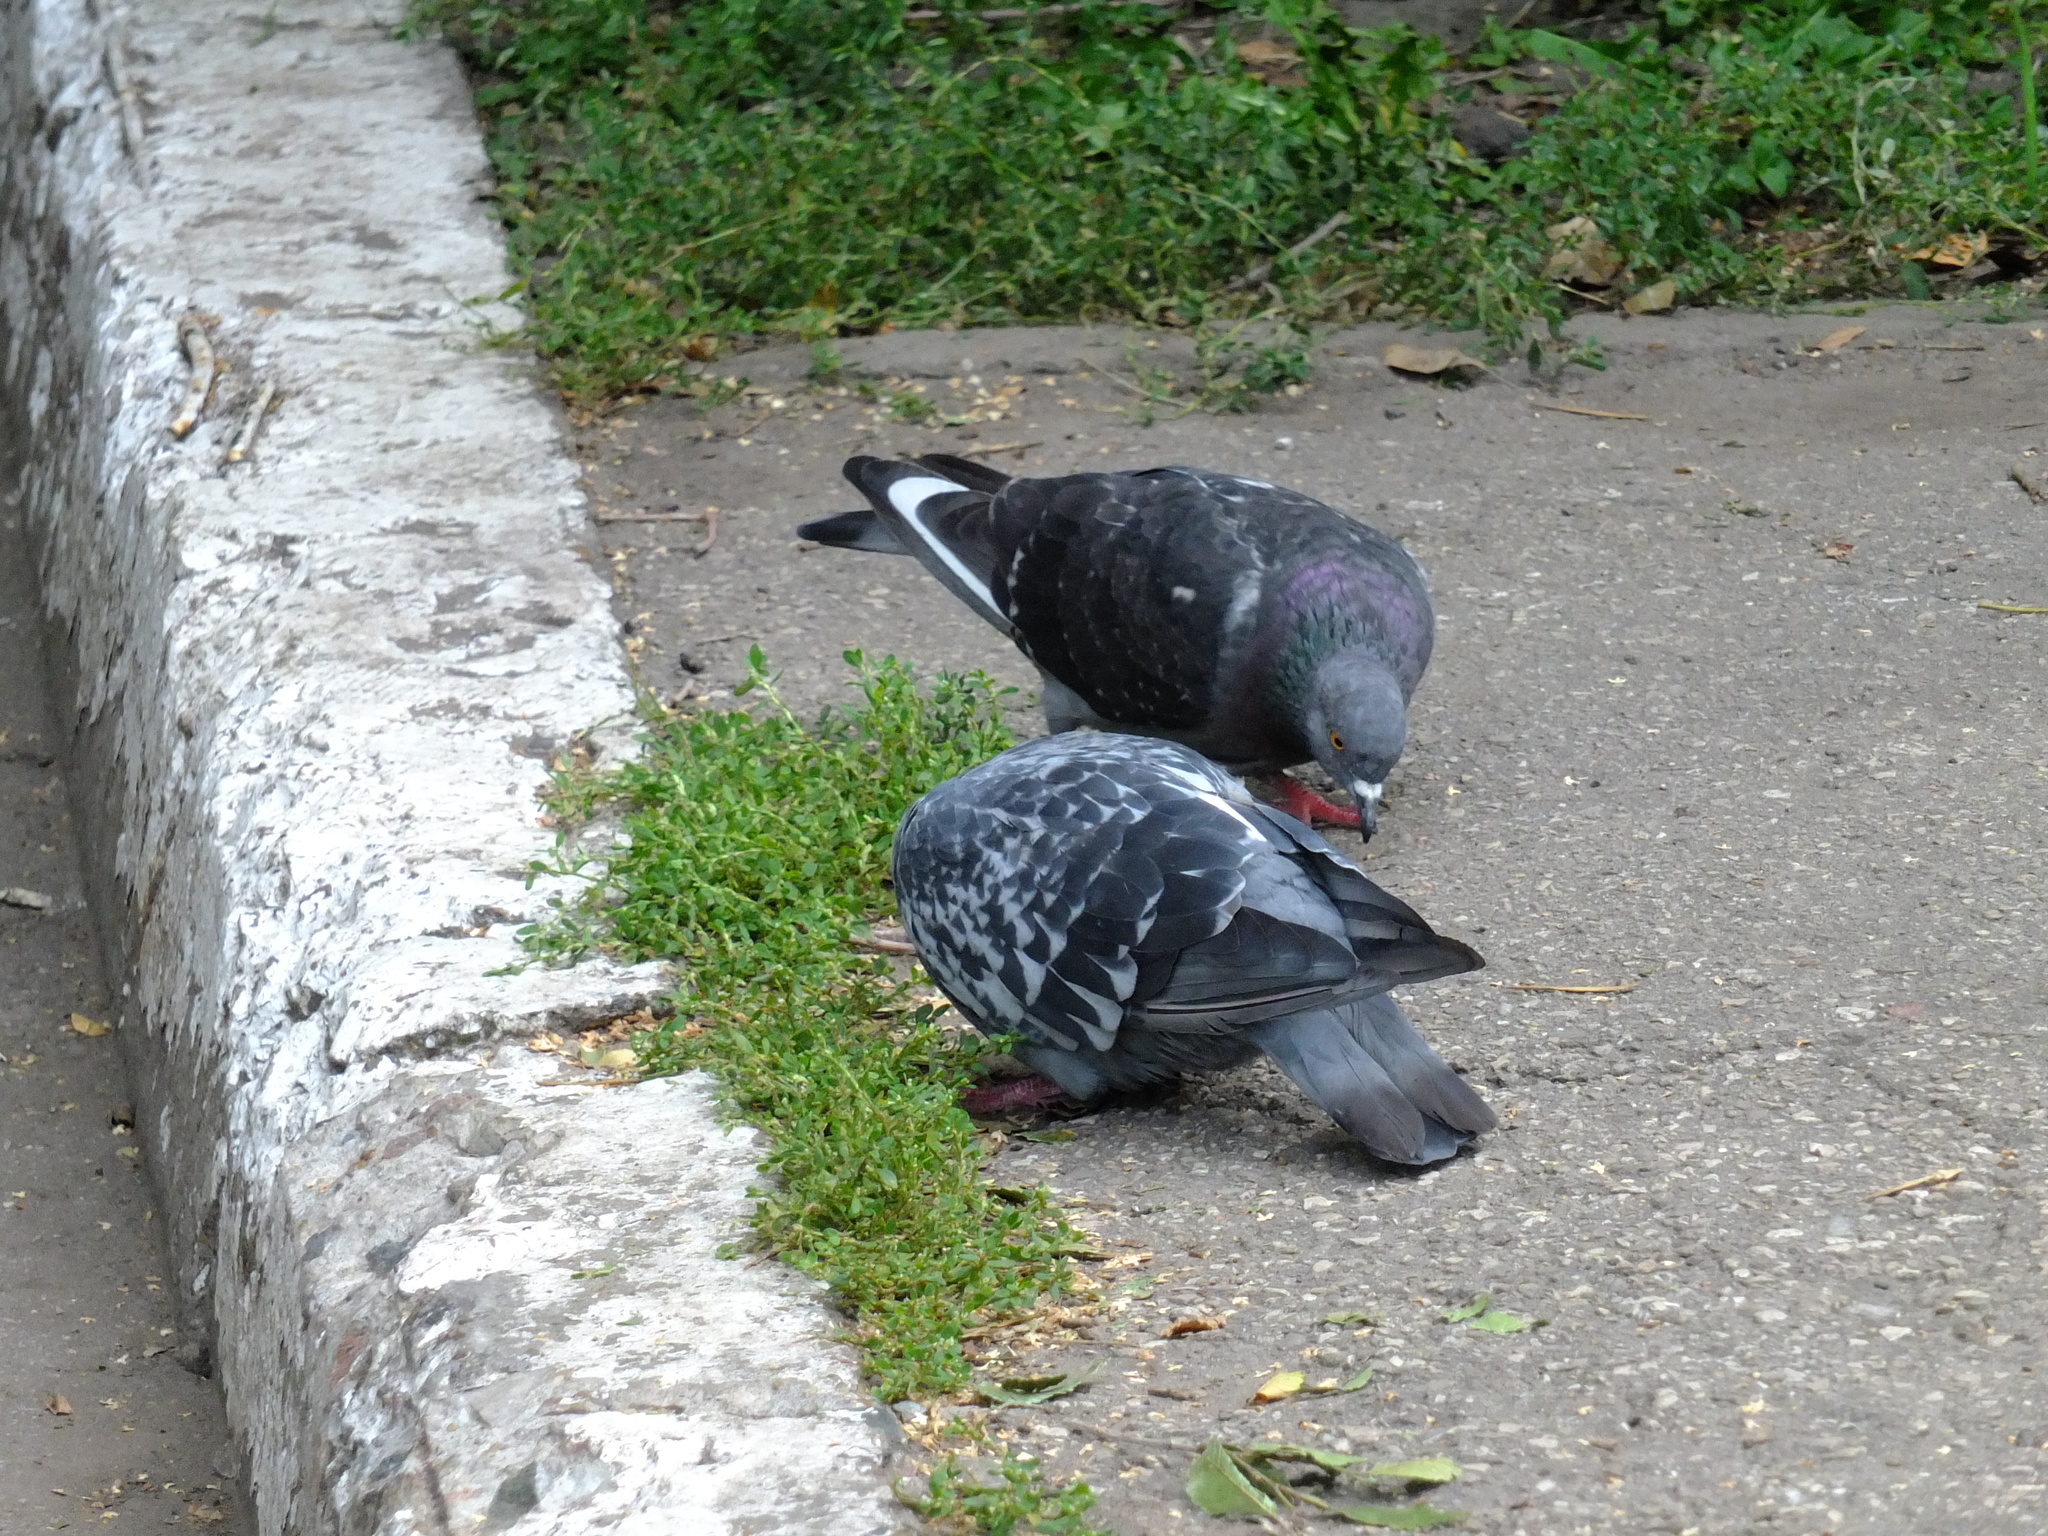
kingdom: Animalia
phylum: Chordata
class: Aves
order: Columbiformes
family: Columbidae
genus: Columba
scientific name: Columba livia
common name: Rock pigeon
